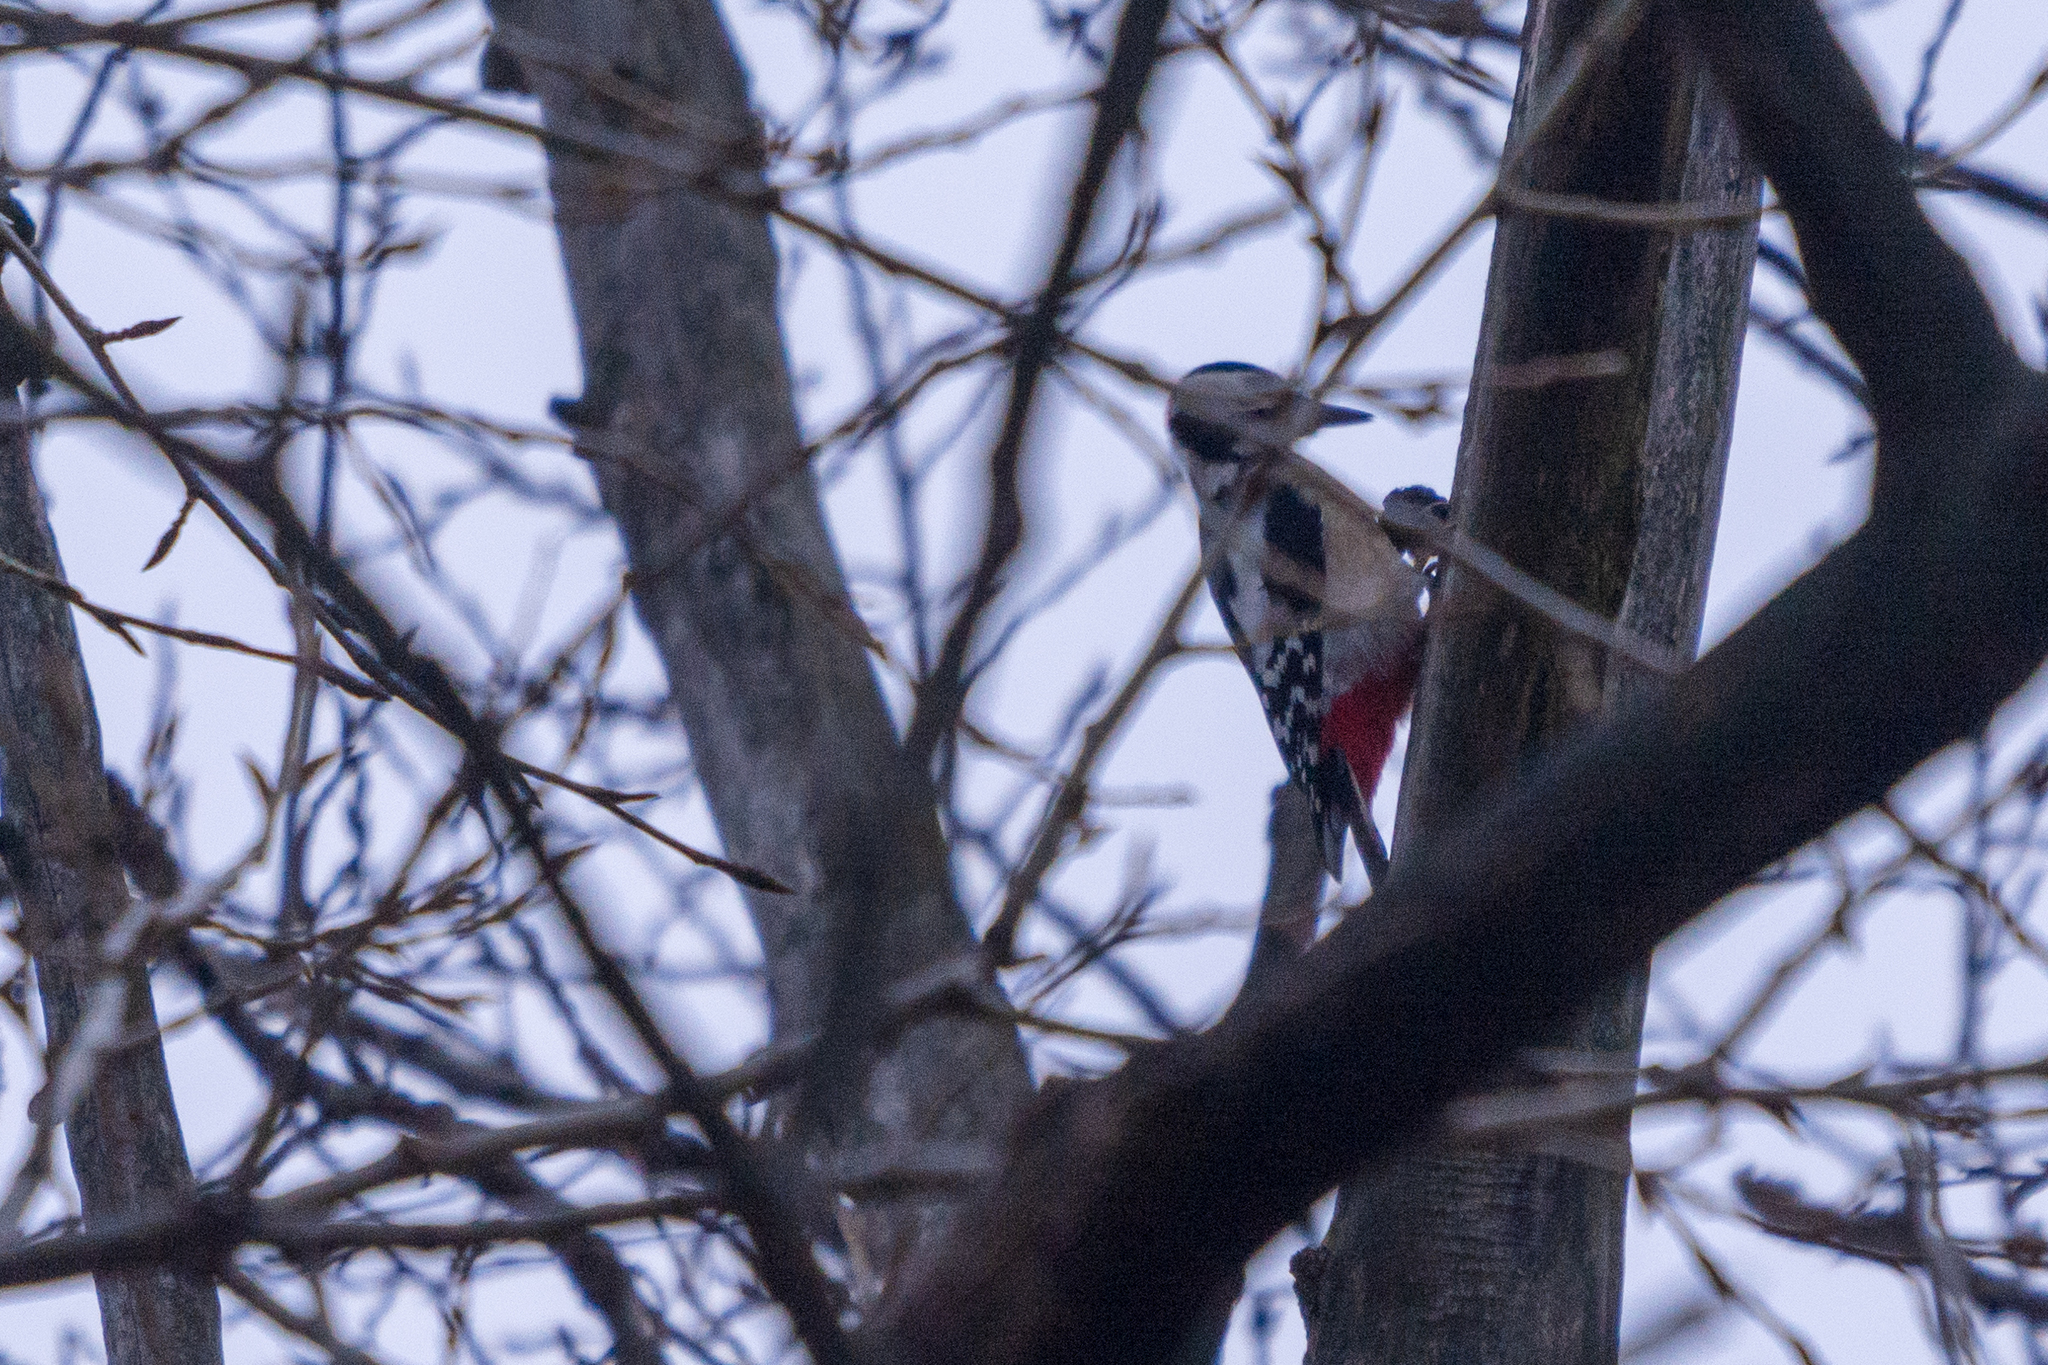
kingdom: Animalia
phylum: Chordata
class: Aves
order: Piciformes
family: Picidae
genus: Dendrocopos
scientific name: Dendrocopos major
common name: Great spotted woodpecker
